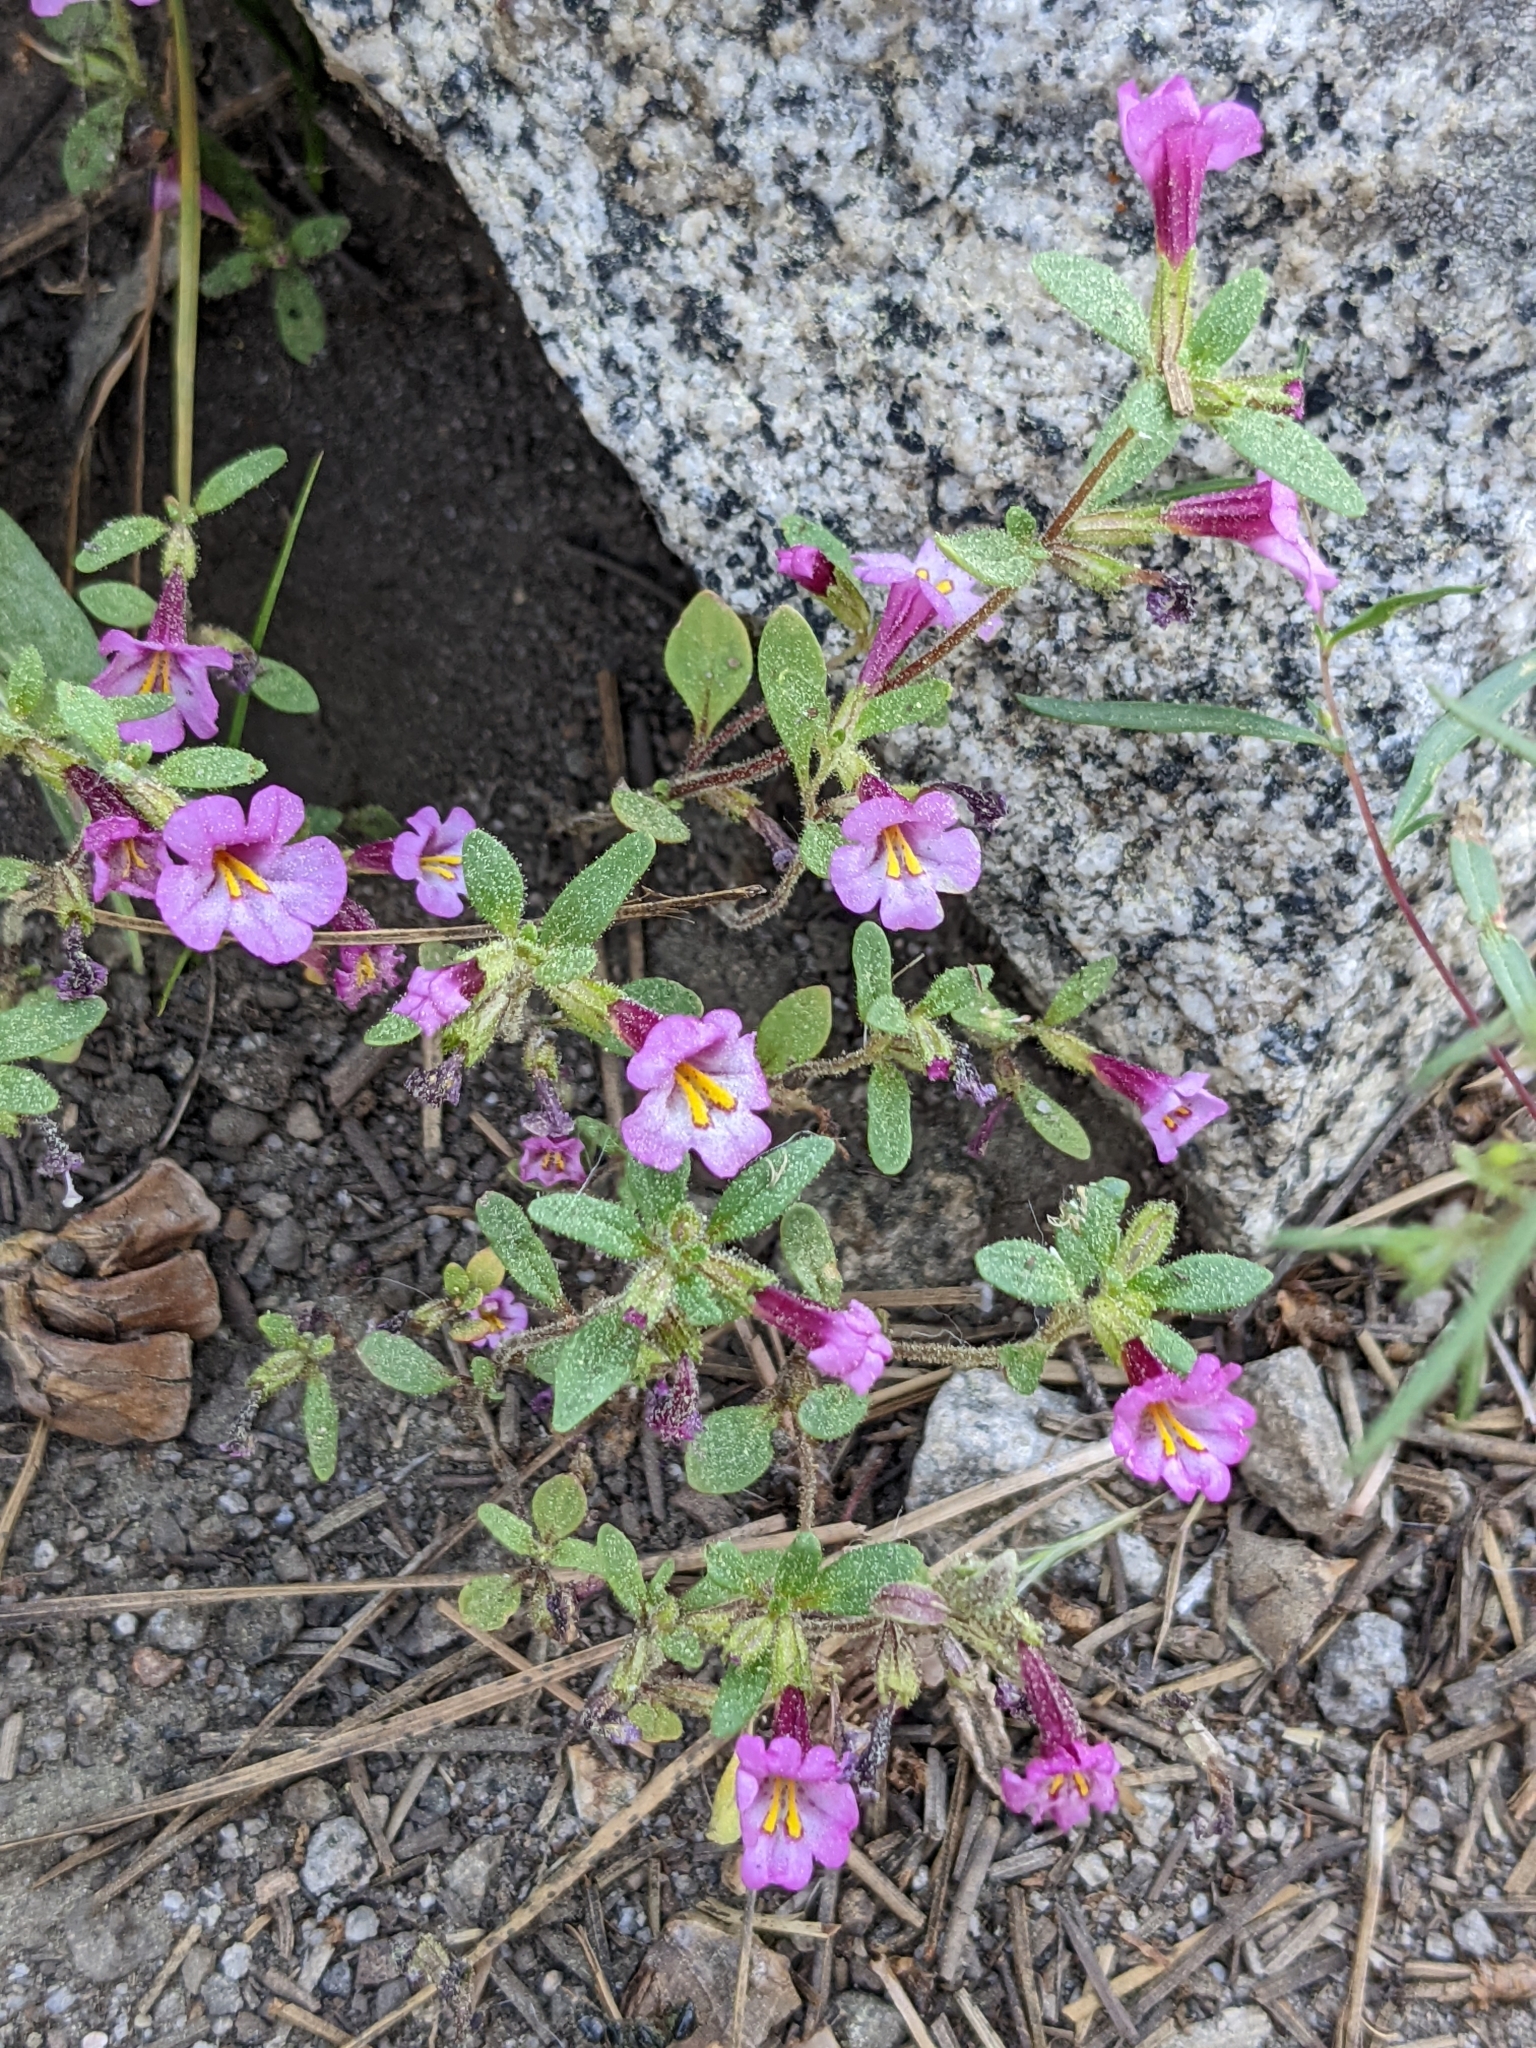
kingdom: Plantae
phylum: Tracheophyta
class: Magnoliopsida
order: Lamiales
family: Phrymaceae
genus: Diplacus
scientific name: Diplacus torreyi
